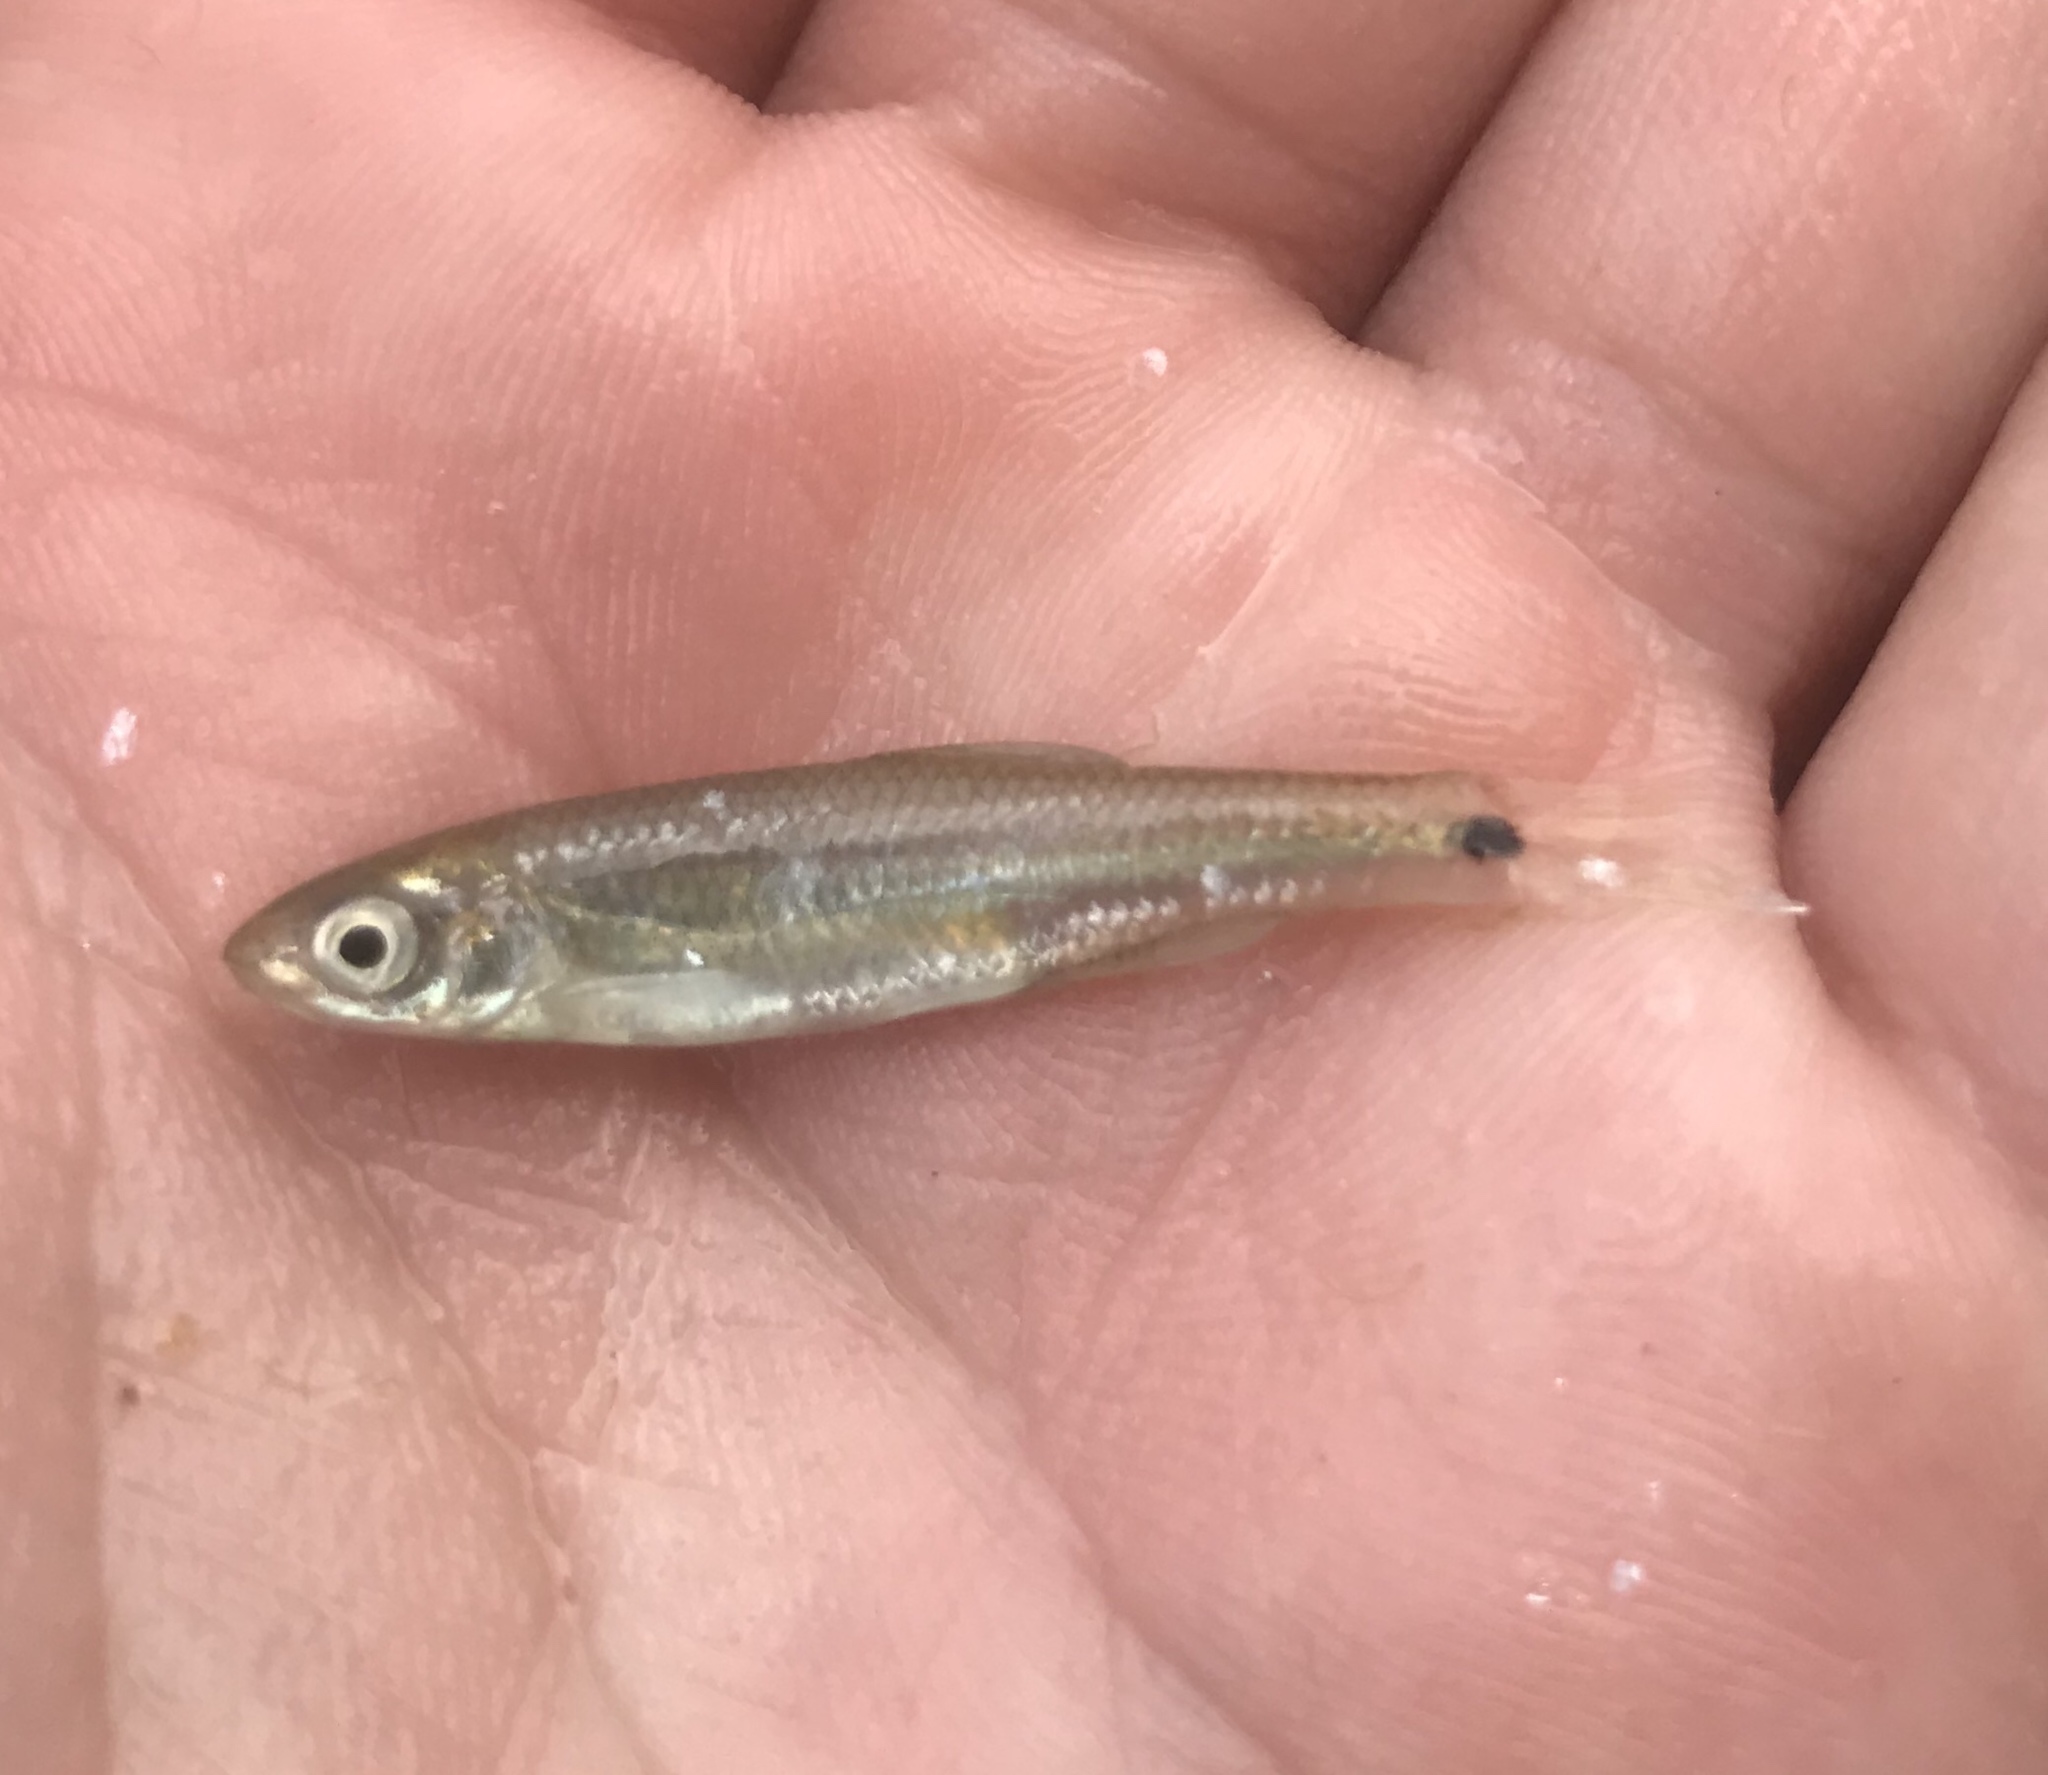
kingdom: Animalia
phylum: Chordata
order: Cypriniformes
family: Cyprinidae
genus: Cyprinella
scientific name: Cyprinella venusta
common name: Blacktail shiner
